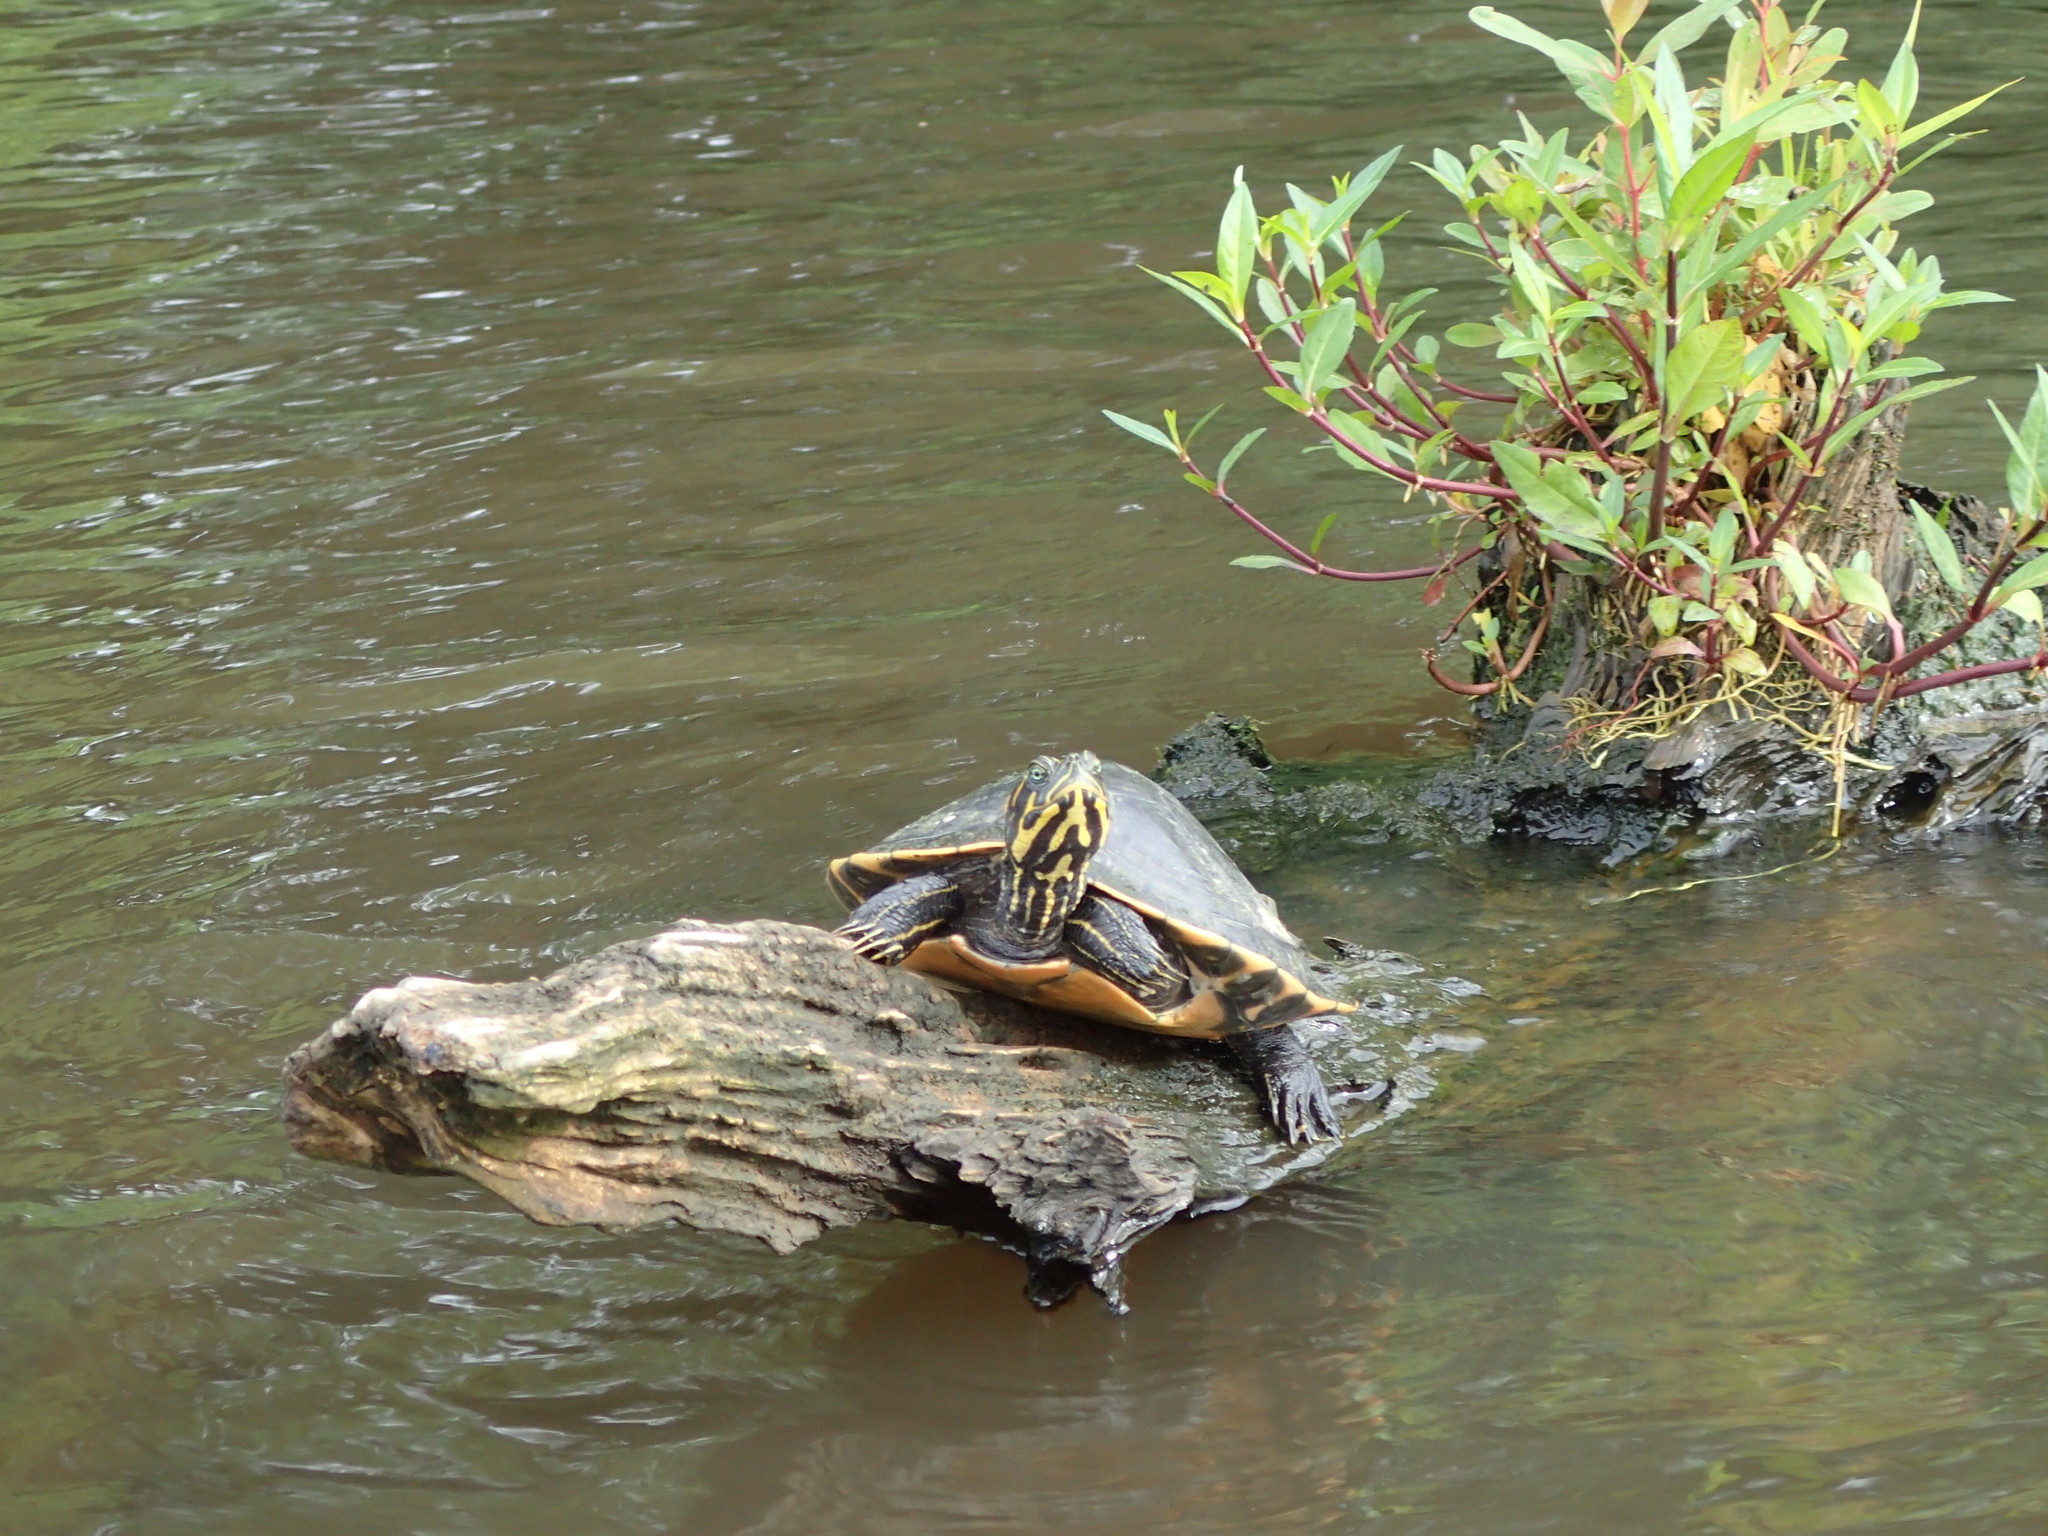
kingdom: Animalia
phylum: Chordata
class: Testudines
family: Emydidae
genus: Pseudemys
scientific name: Pseudemys concinna
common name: Eastern river cooter
